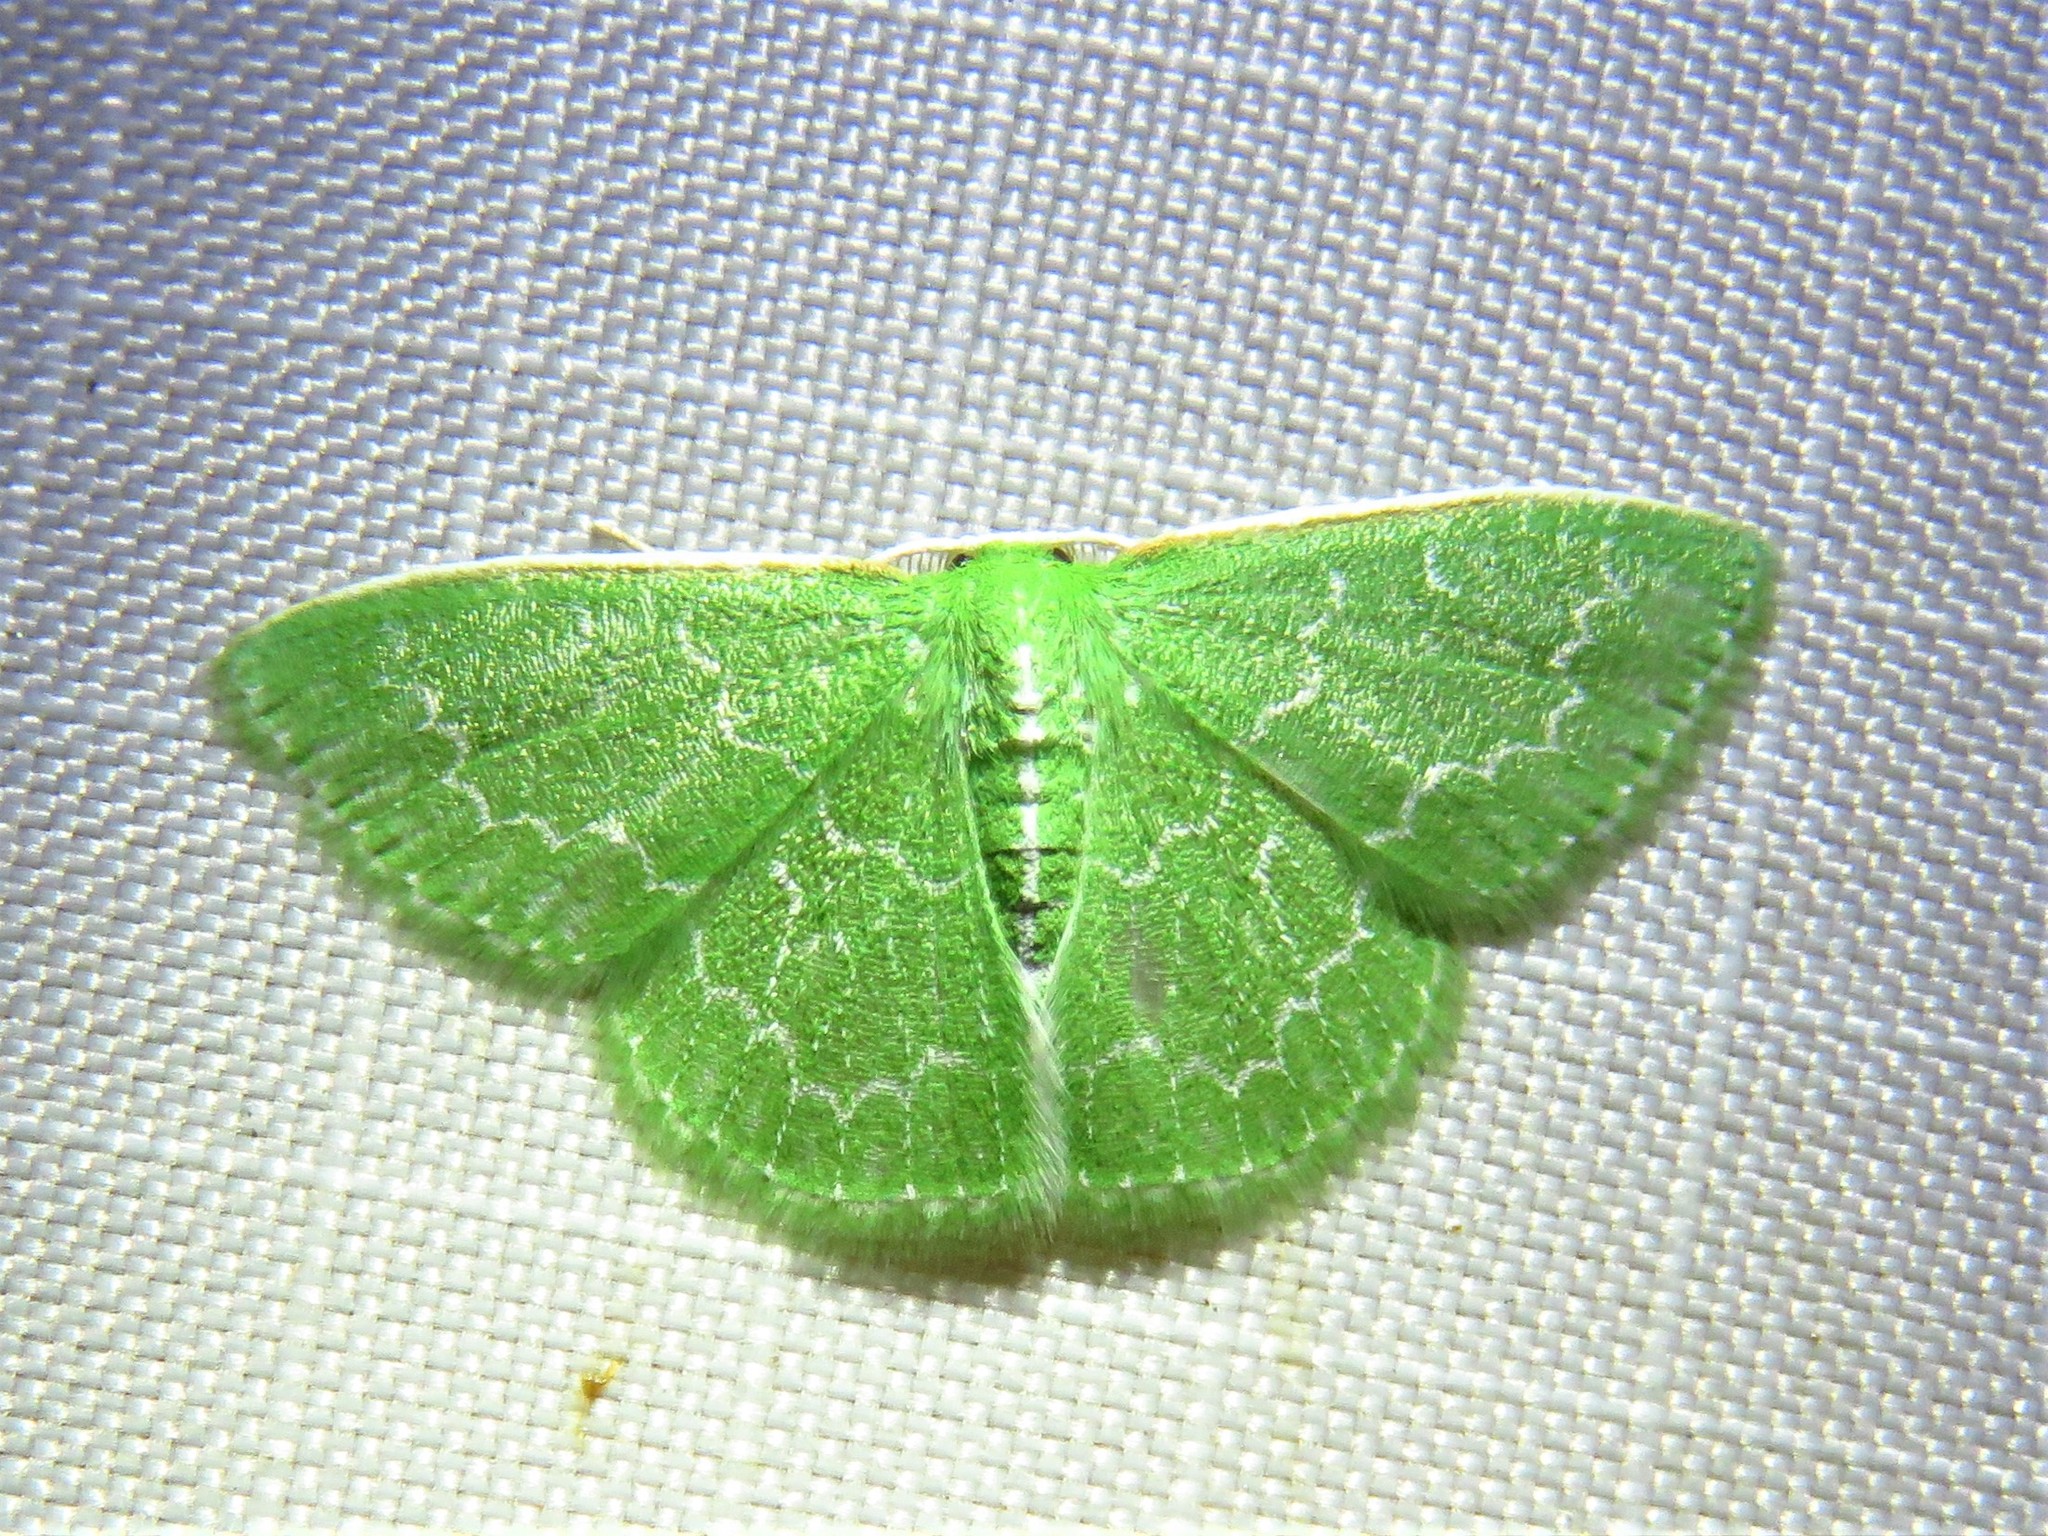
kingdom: Animalia
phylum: Arthropoda
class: Insecta
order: Lepidoptera
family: Geometridae
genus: Synchlora
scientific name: Synchlora frondaria
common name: Southern emerald
